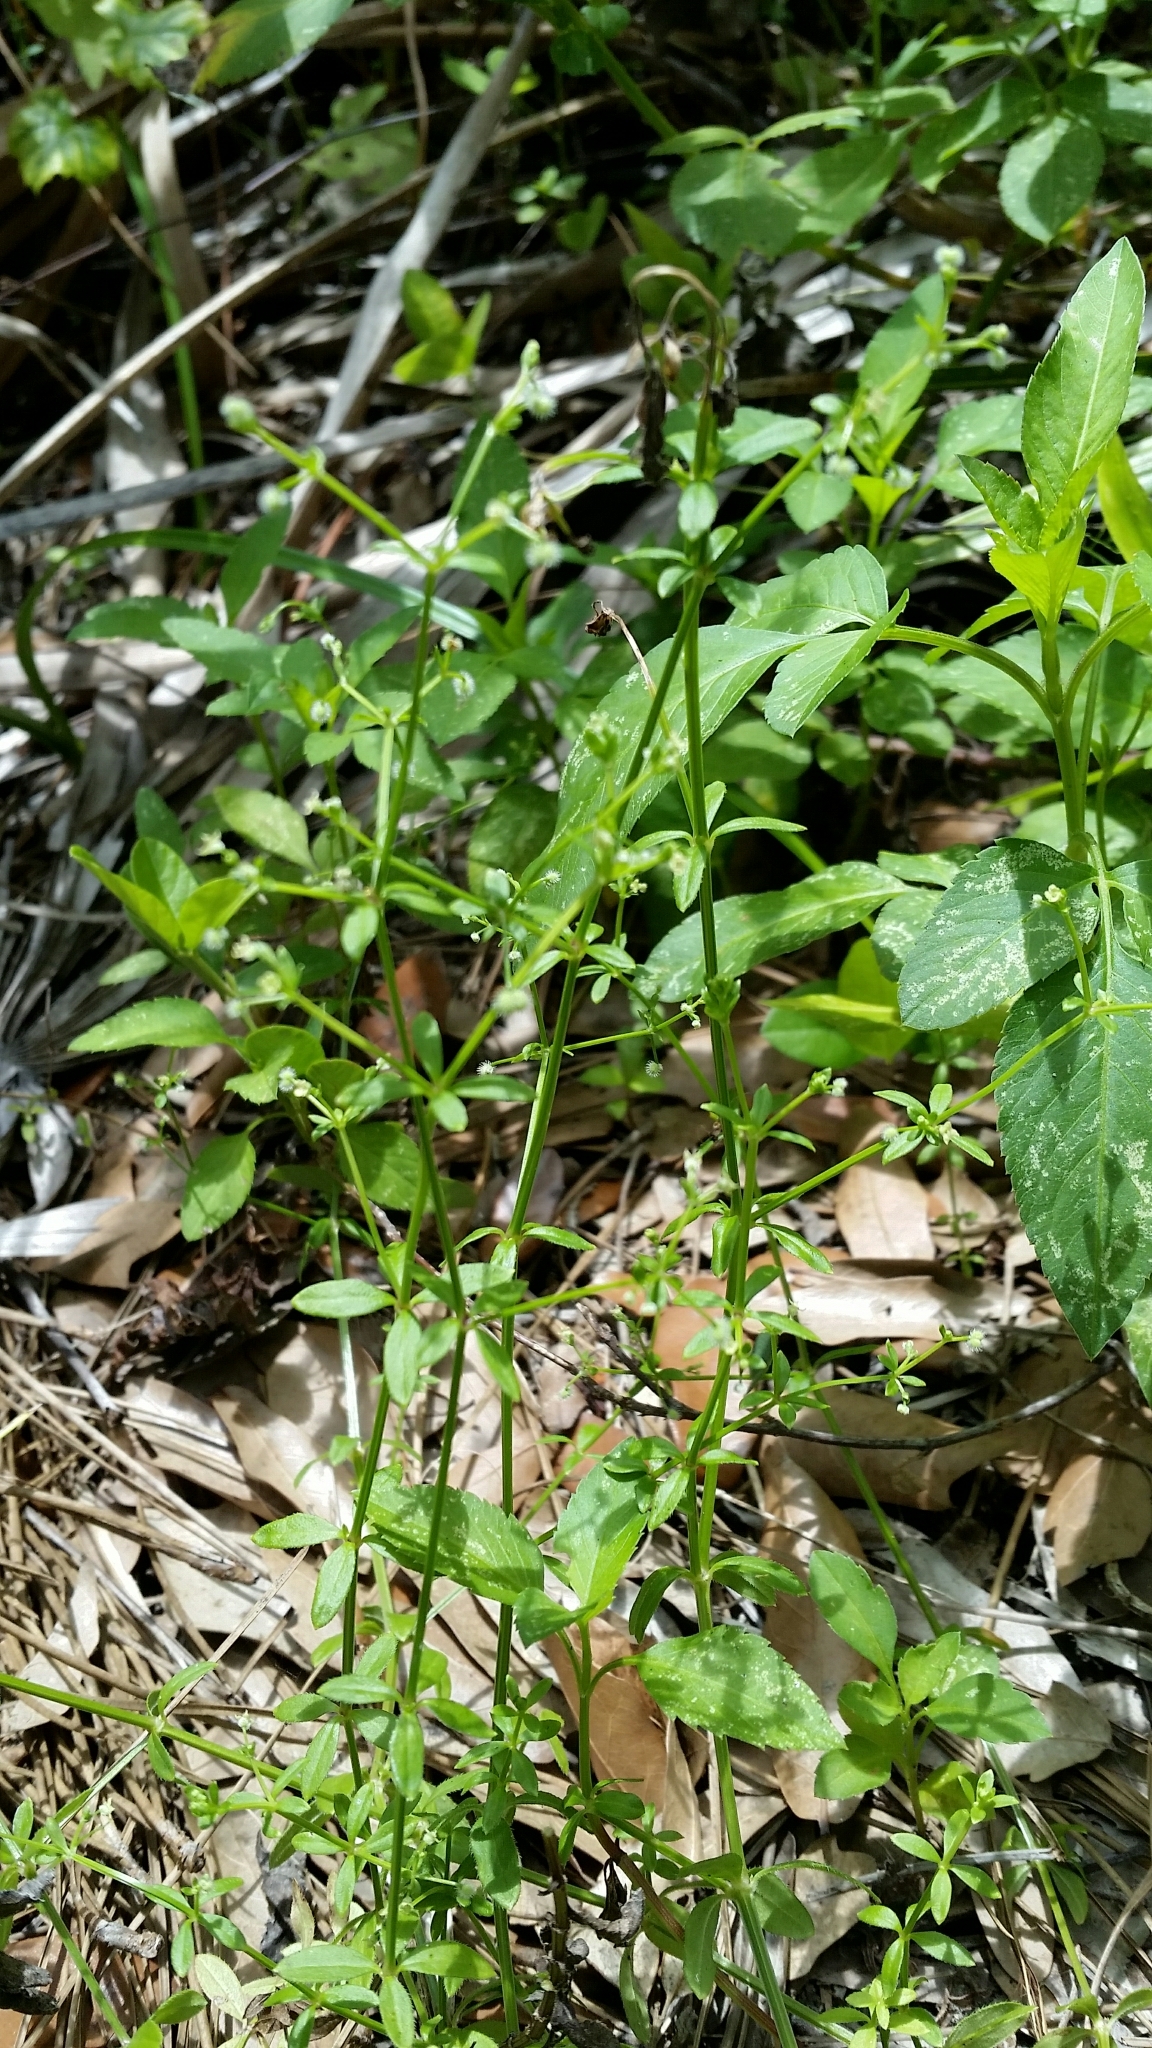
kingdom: Plantae
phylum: Tracheophyta
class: Magnoliopsida
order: Gentianales
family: Rubiaceae
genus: Galium
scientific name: Galium orizabense
